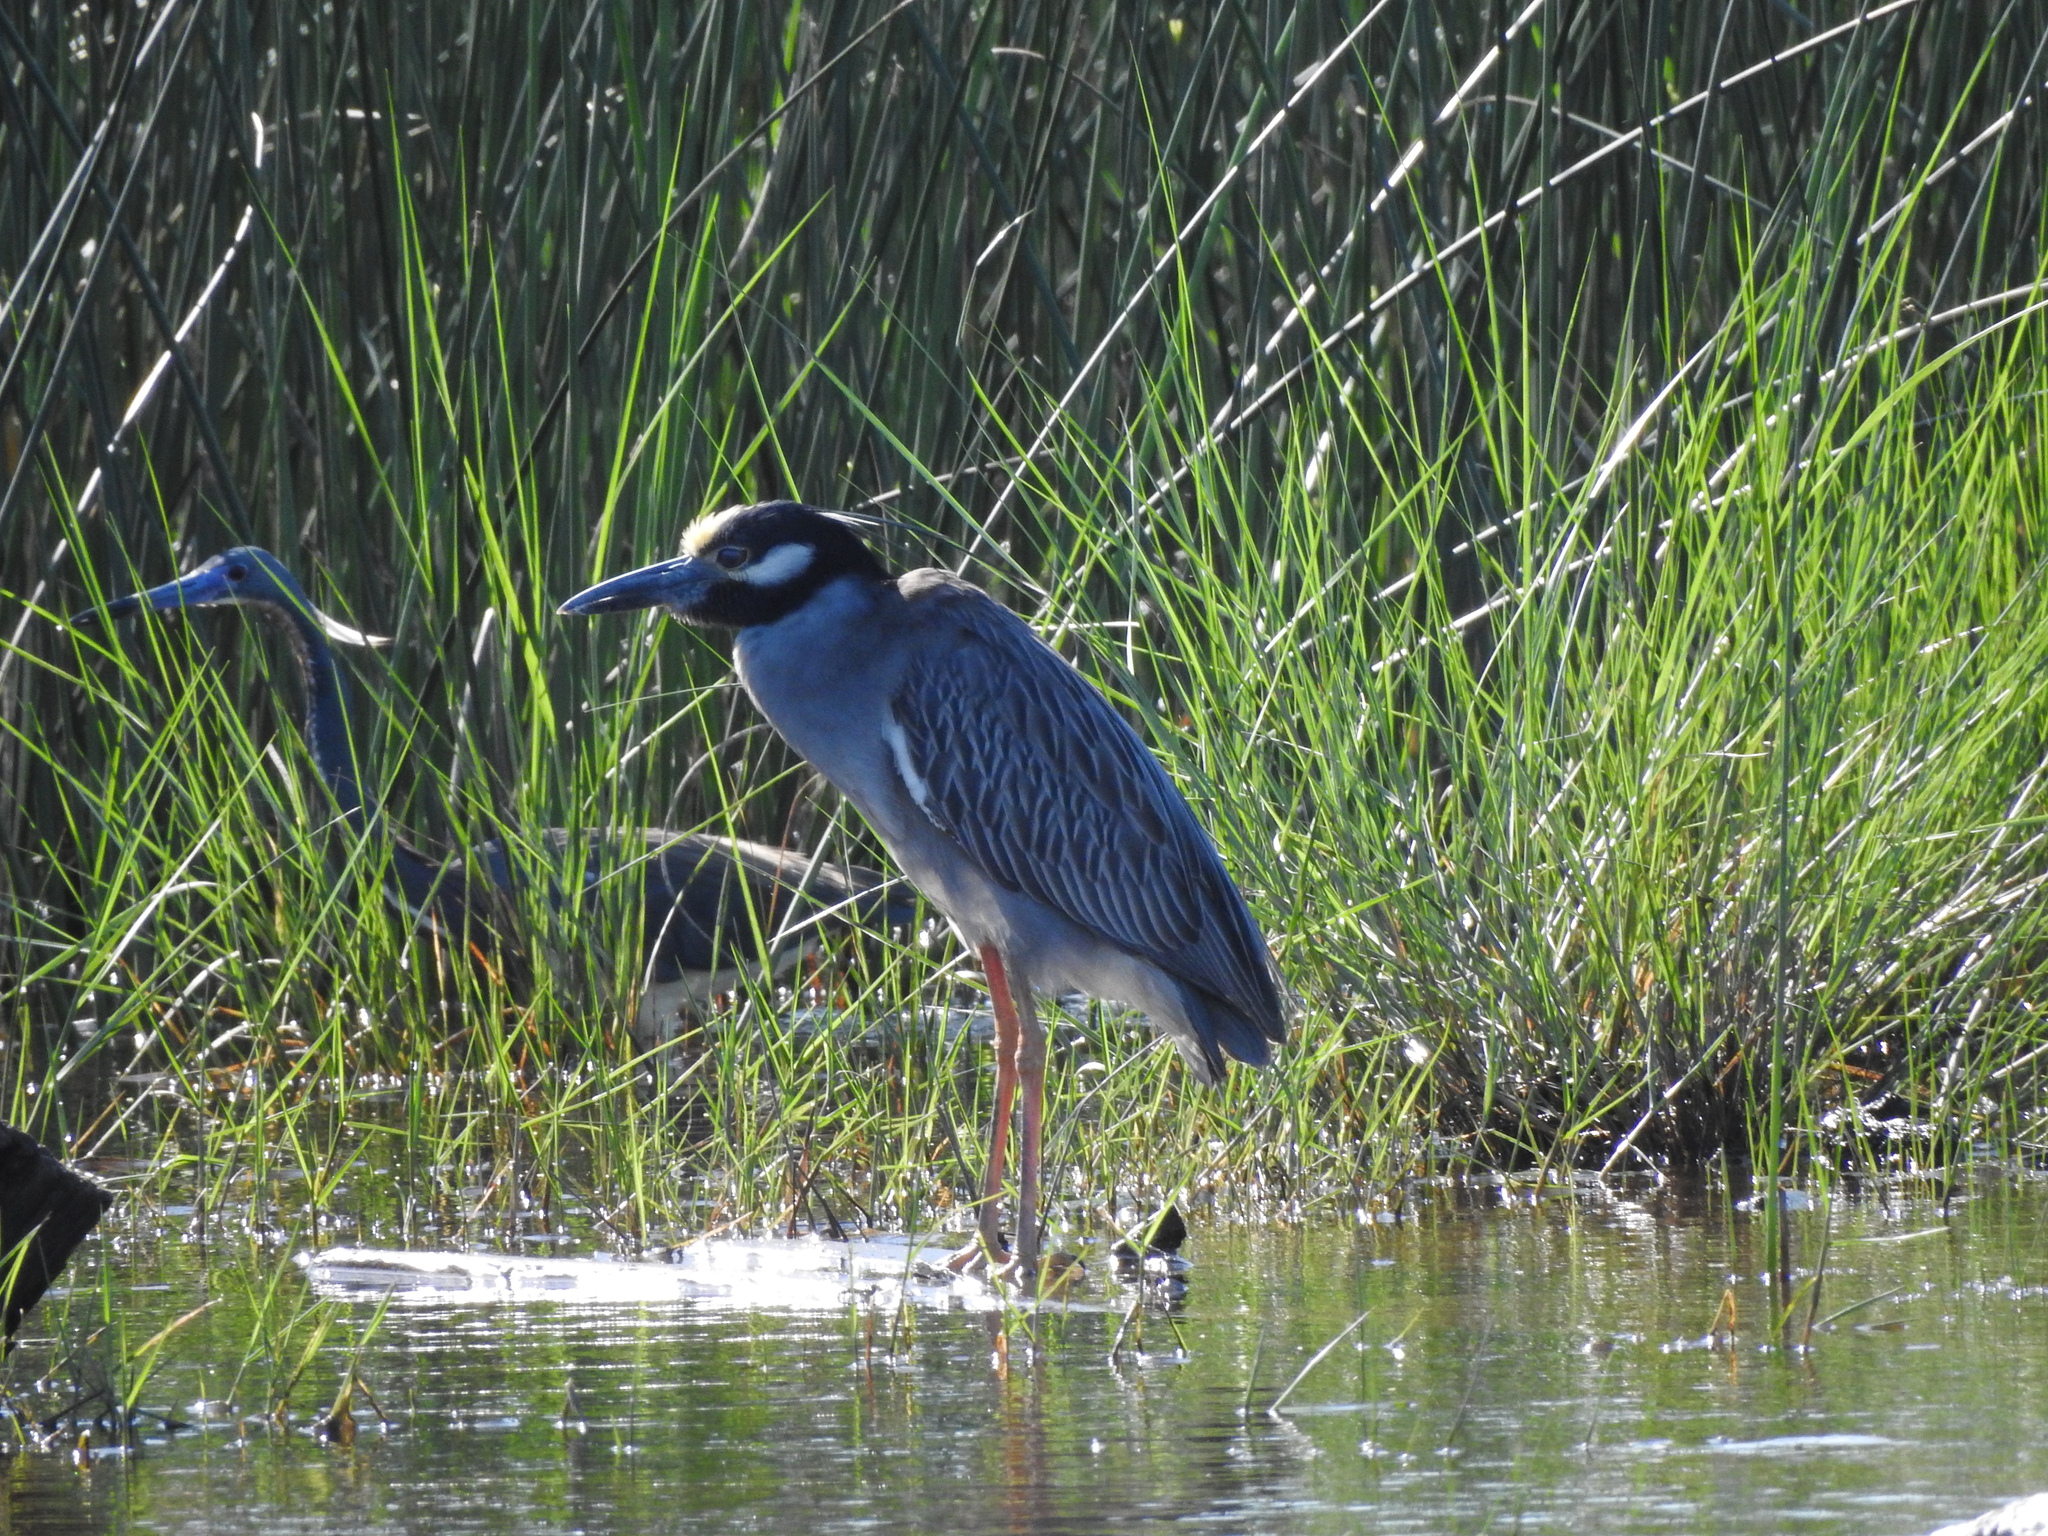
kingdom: Animalia
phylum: Chordata
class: Aves
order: Pelecaniformes
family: Ardeidae
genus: Nyctanassa
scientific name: Nyctanassa violacea
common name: Yellow-crowned night heron
